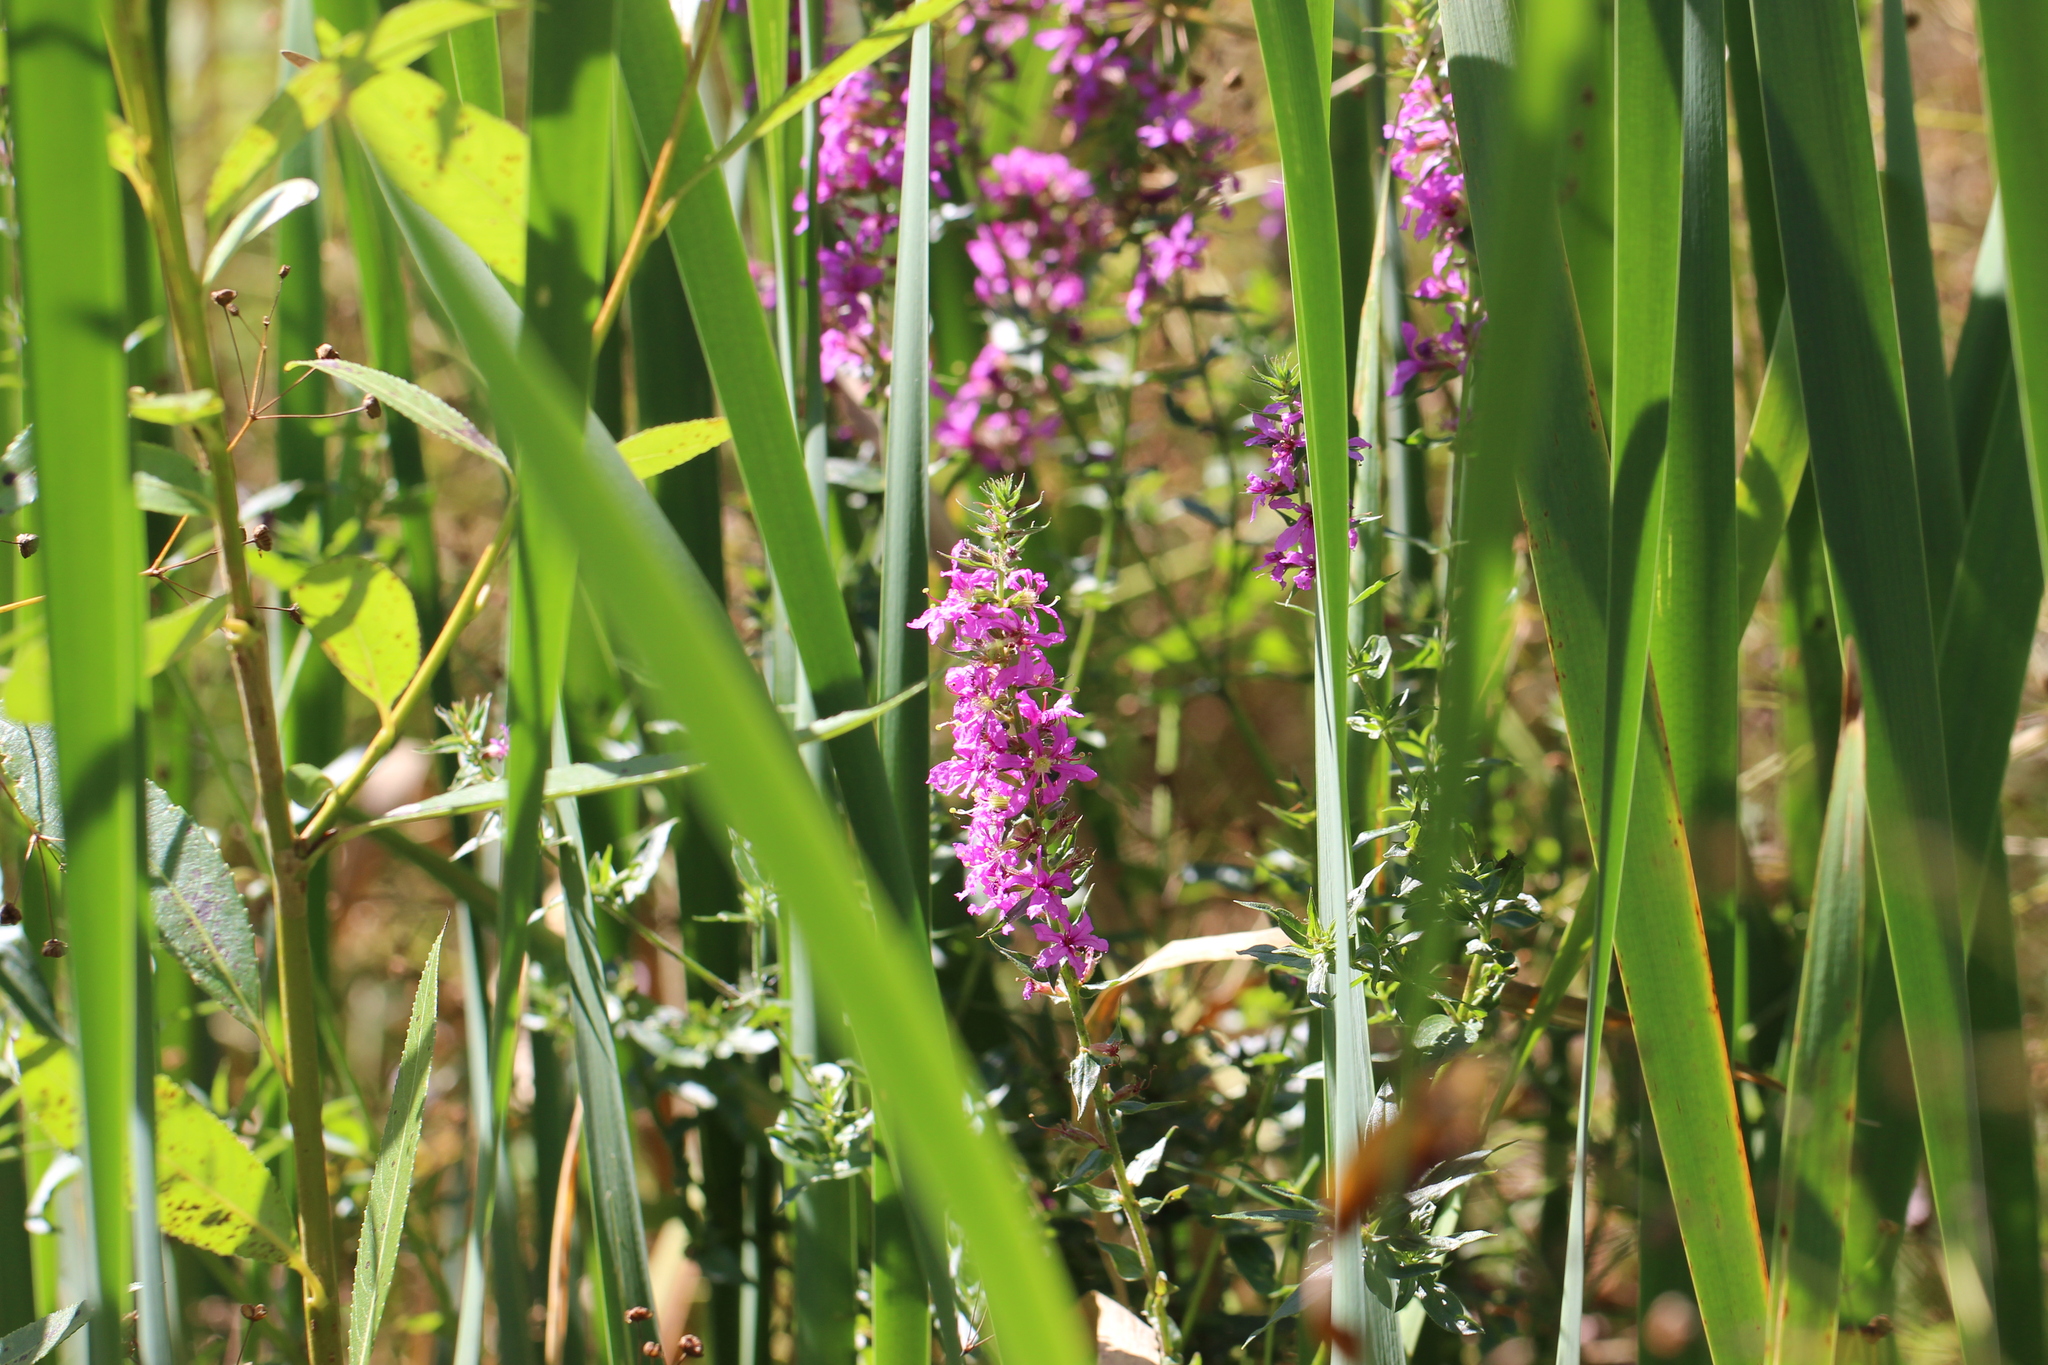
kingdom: Plantae
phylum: Tracheophyta
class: Magnoliopsida
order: Myrtales
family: Lythraceae
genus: Lythrum
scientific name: Lythrum salicaria
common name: Purple loosestrife
